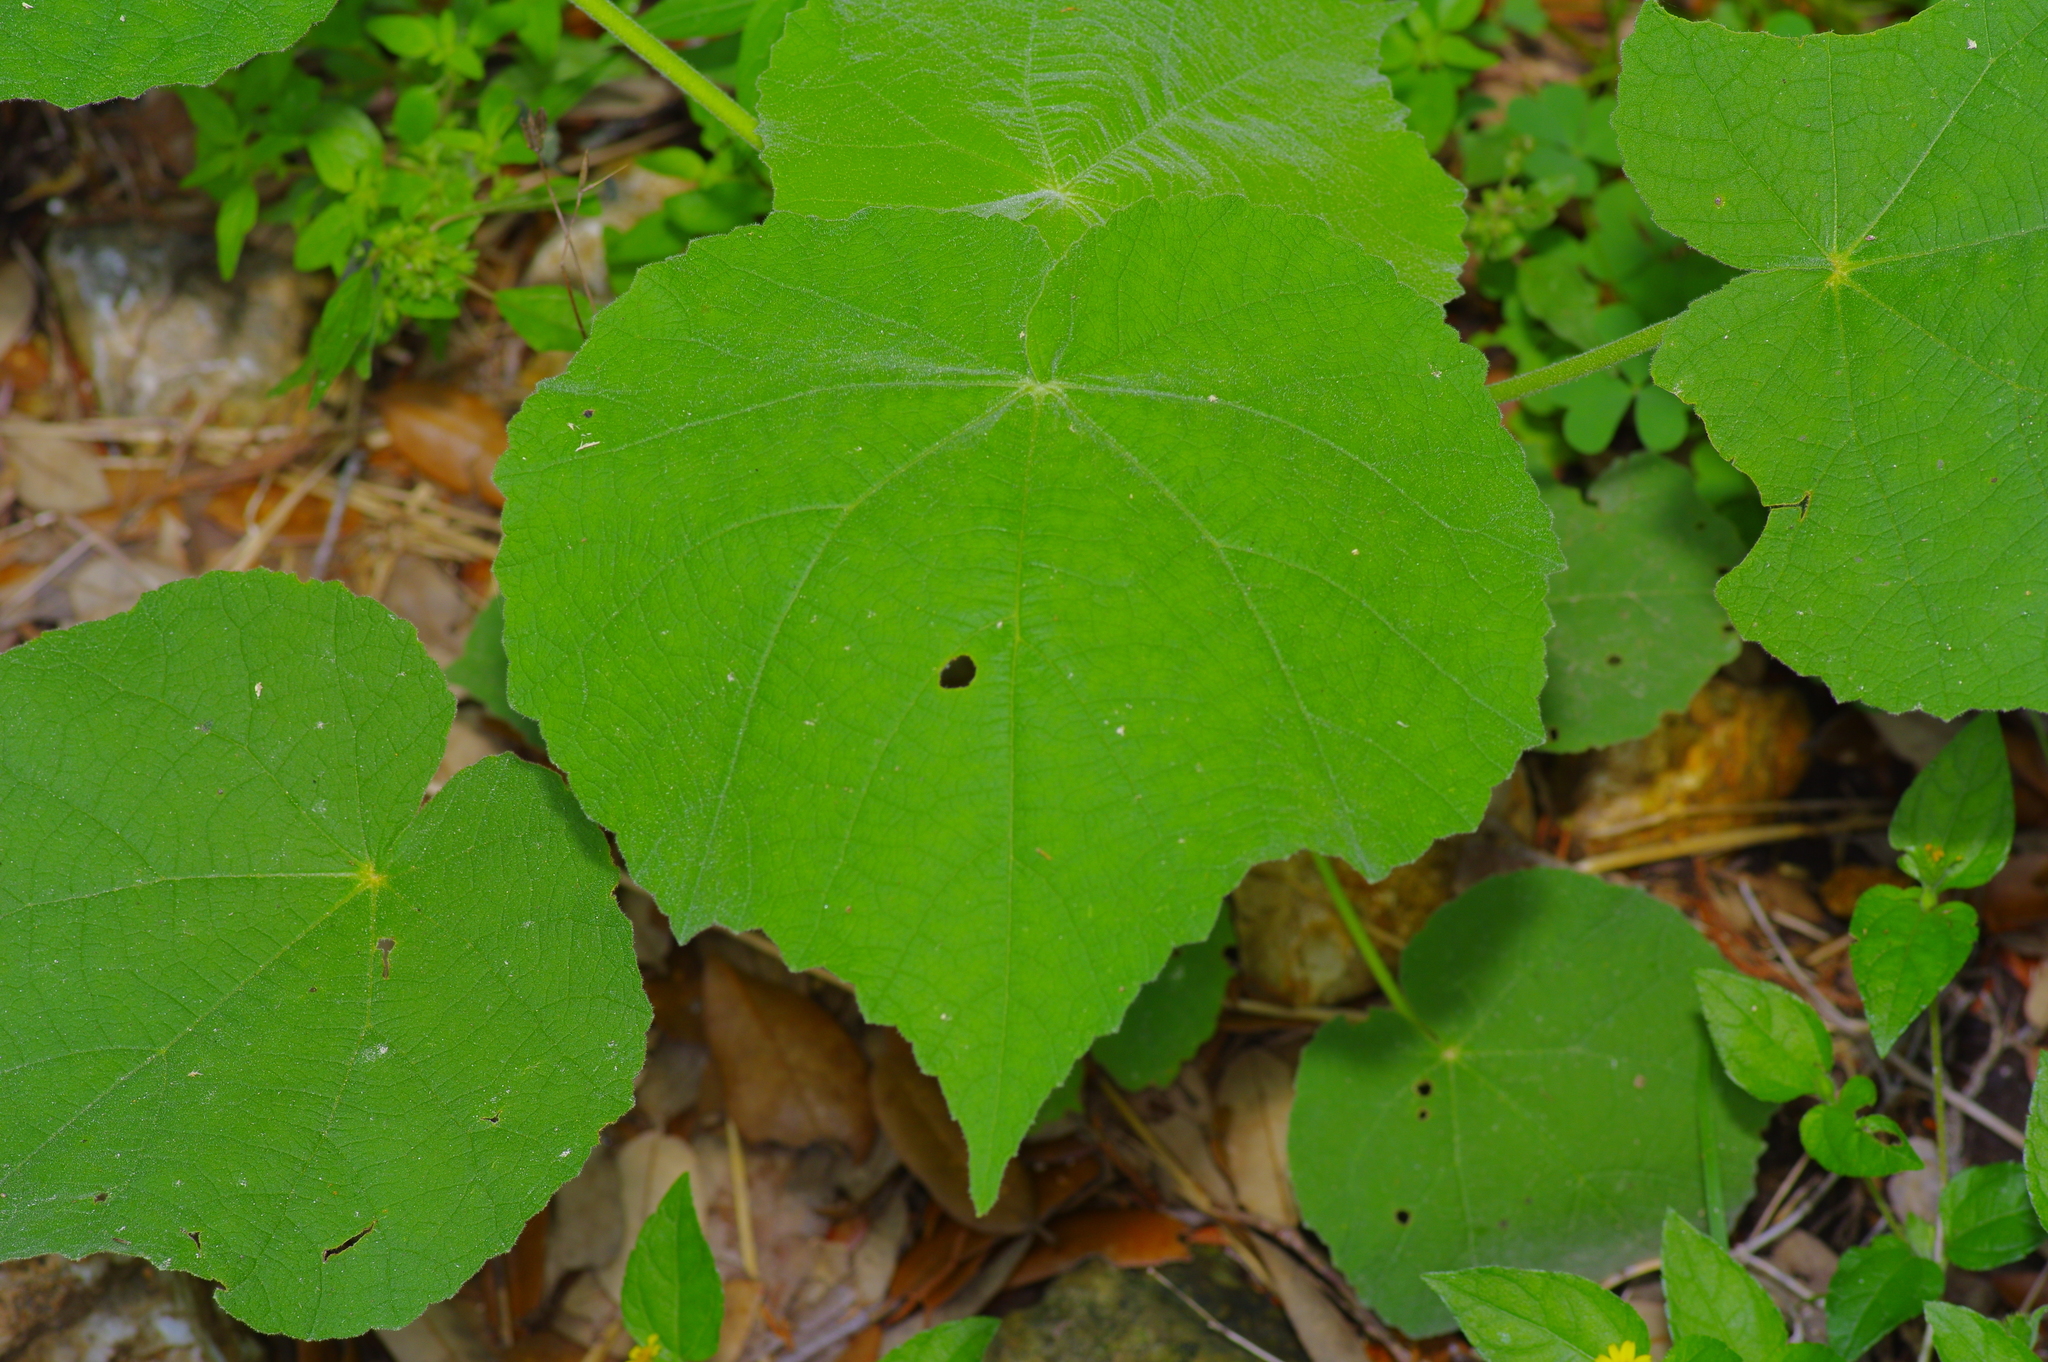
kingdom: Plantae
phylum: Tracheophyta
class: Magnoliopsida
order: Malvales
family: Malvaceae
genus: Allowissadula
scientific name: Allowissadula holosericea
